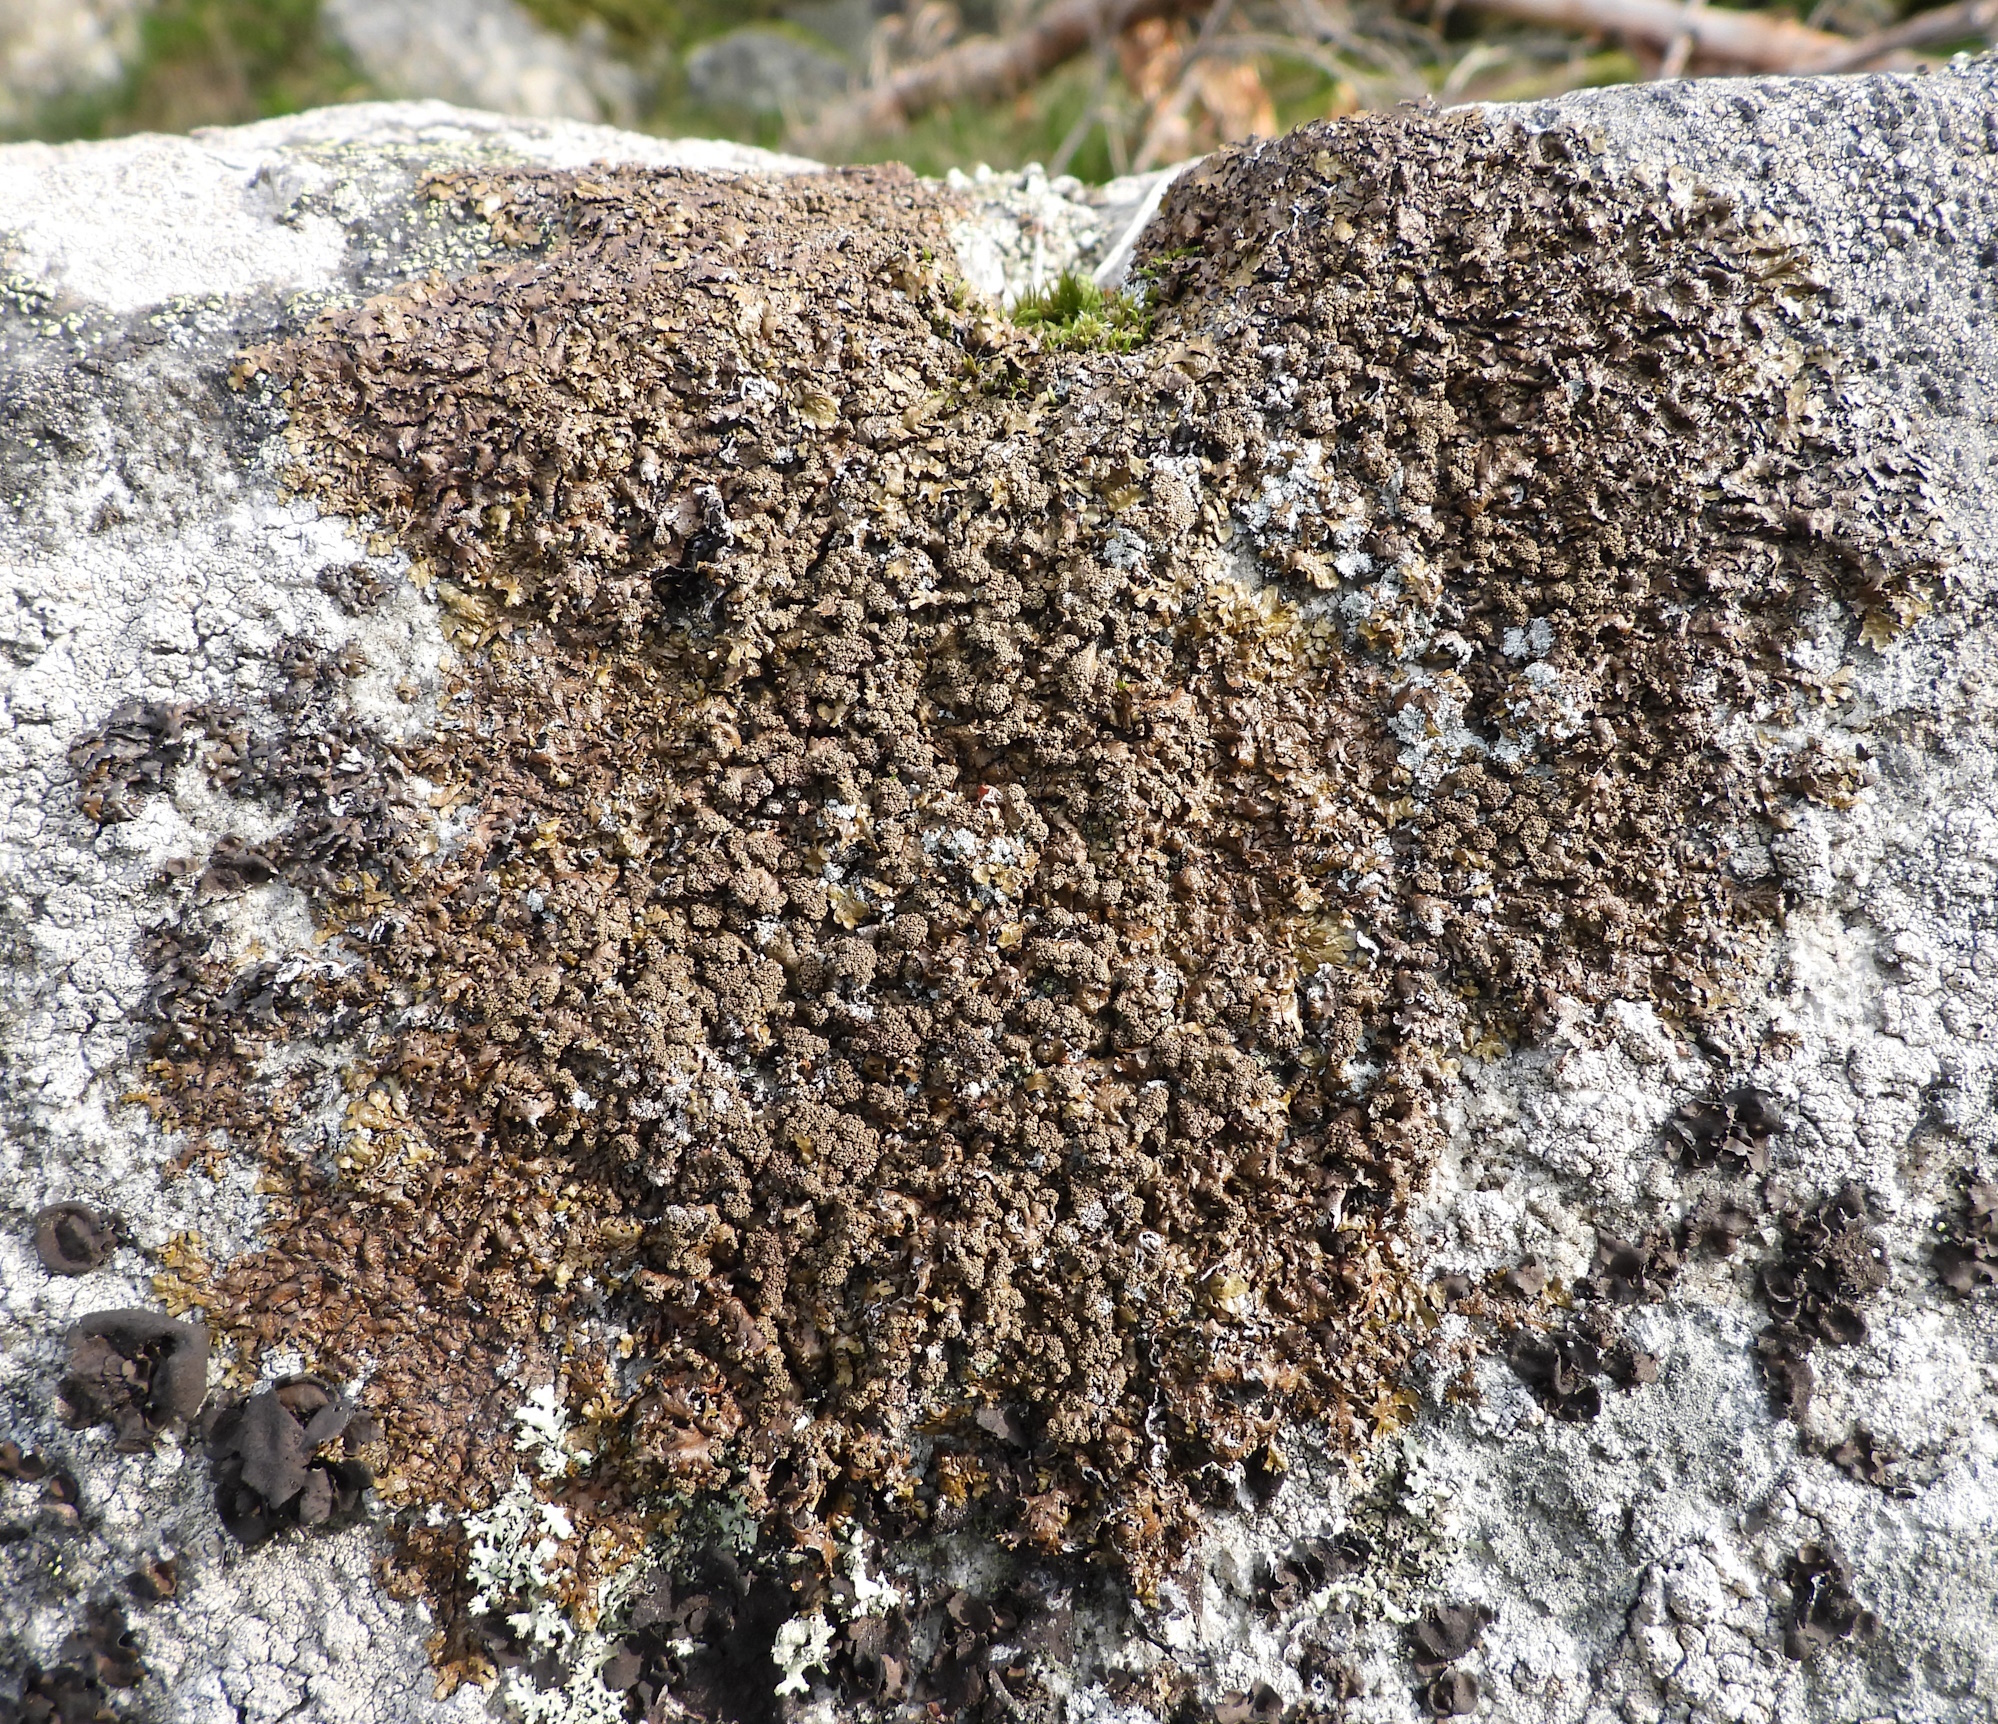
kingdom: Fungi
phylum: Ascomycota
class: Lecanoromycetes
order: Lecanorales
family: Parmeliaceae
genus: Xanthoparmelia
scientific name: Xanthoparmelia loxodes
